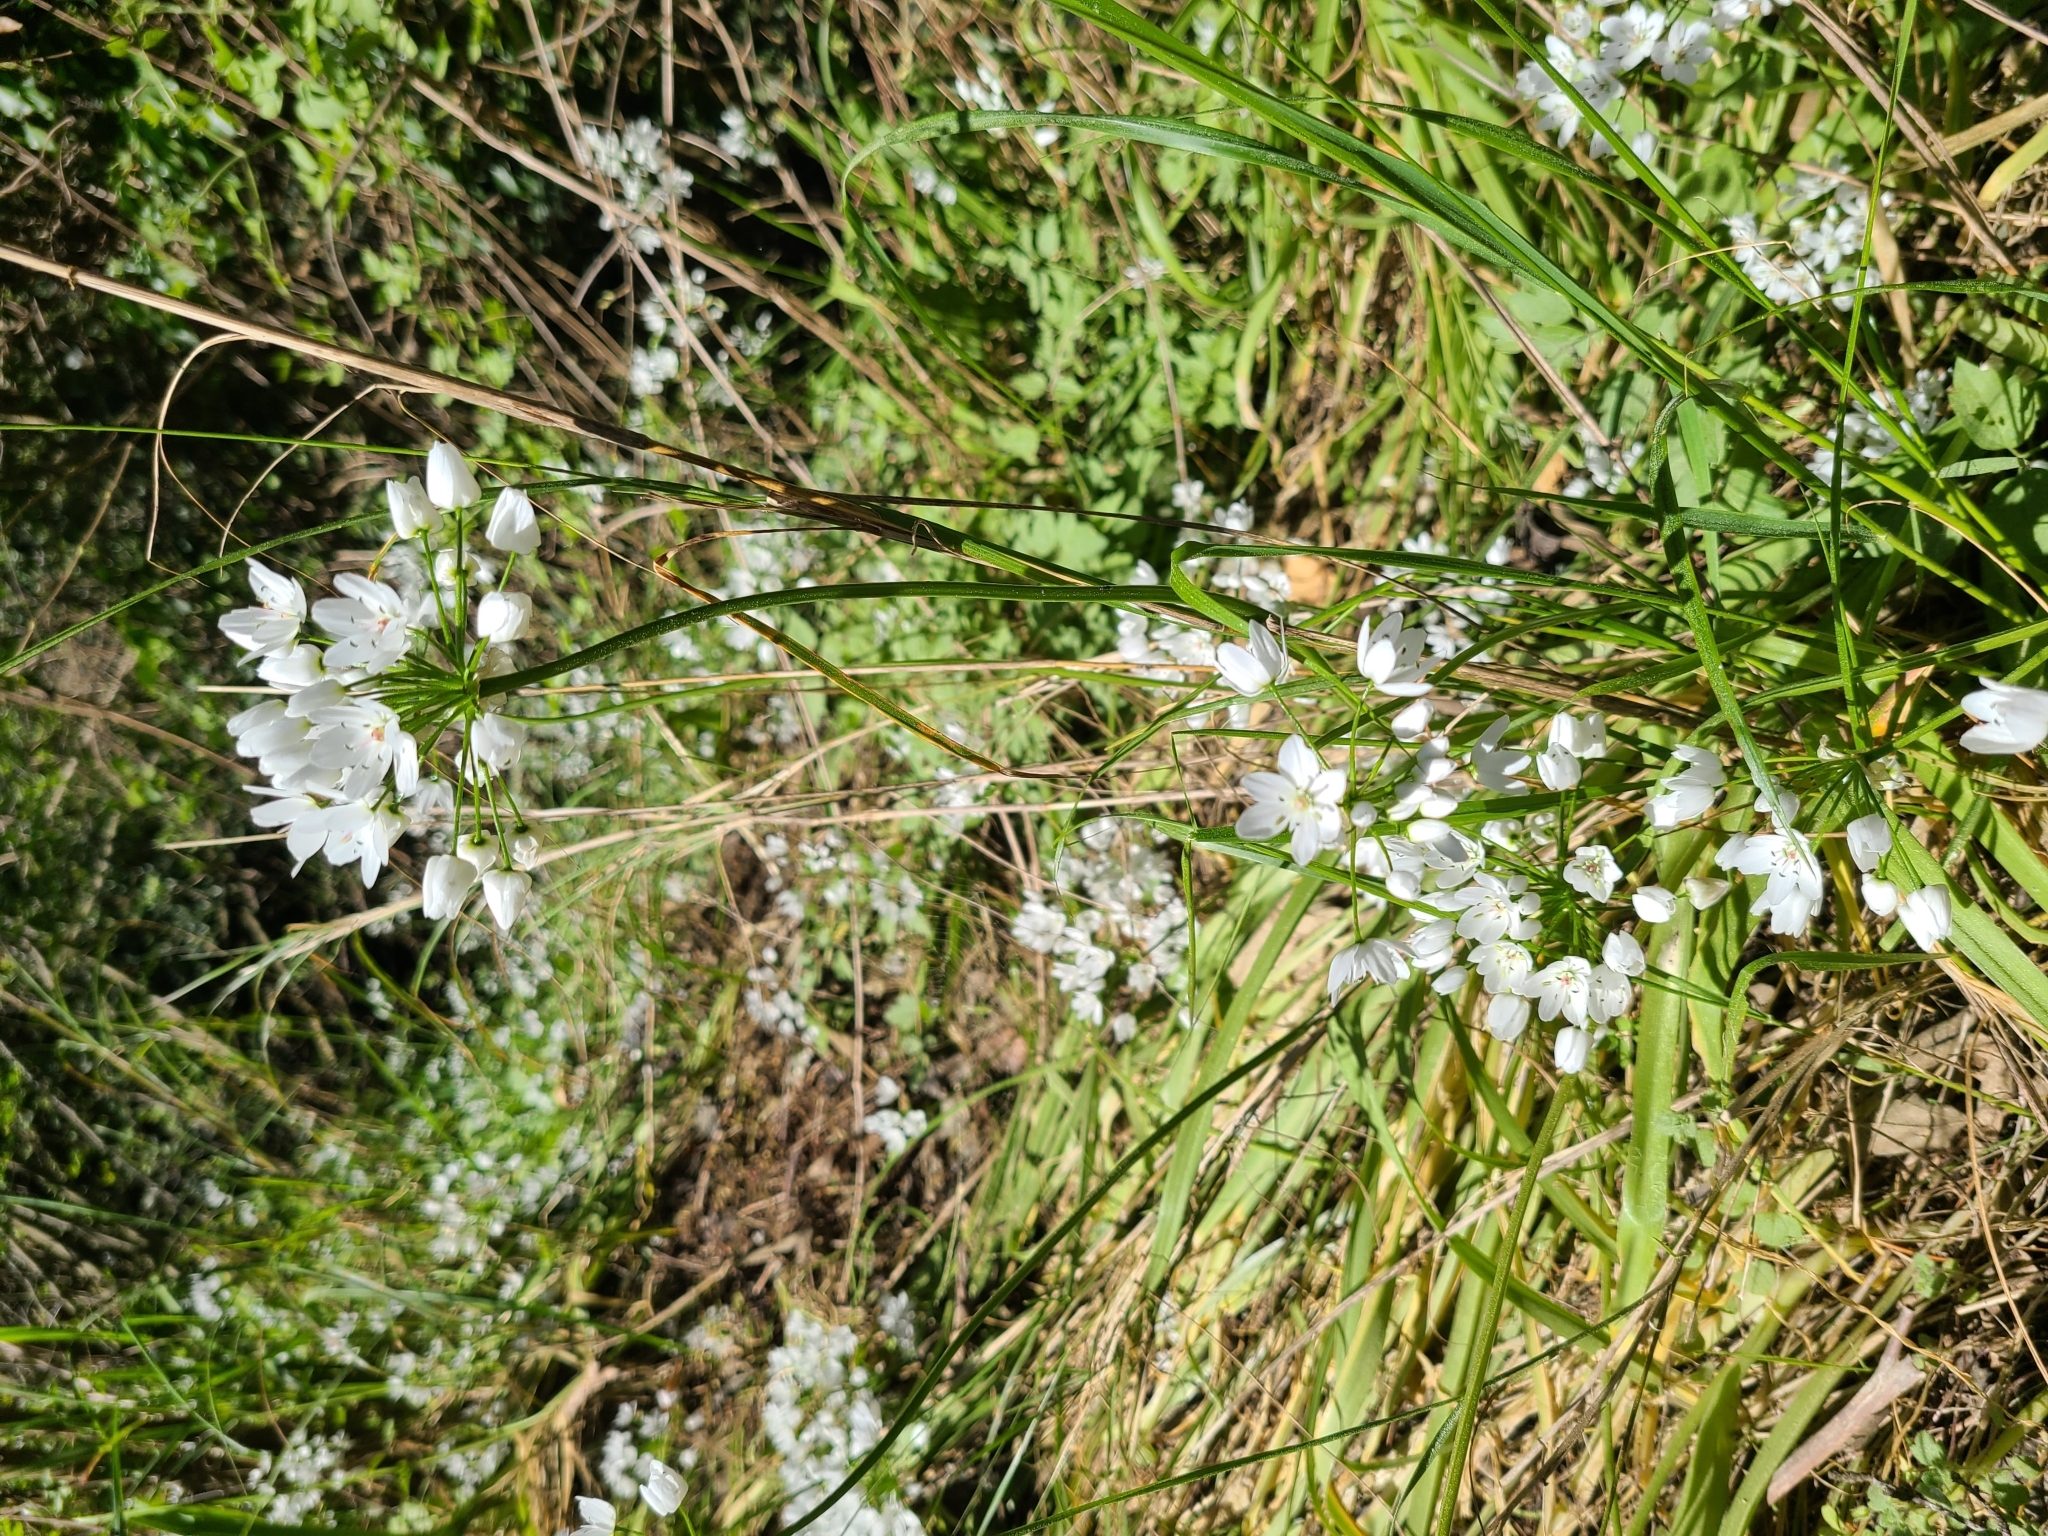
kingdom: Plantae
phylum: Tracheophyta
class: Liliopsida
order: Asparagales
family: Amaryllidaceae
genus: Allium
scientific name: Allium neapolitanum
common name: Neapolitan garlic
